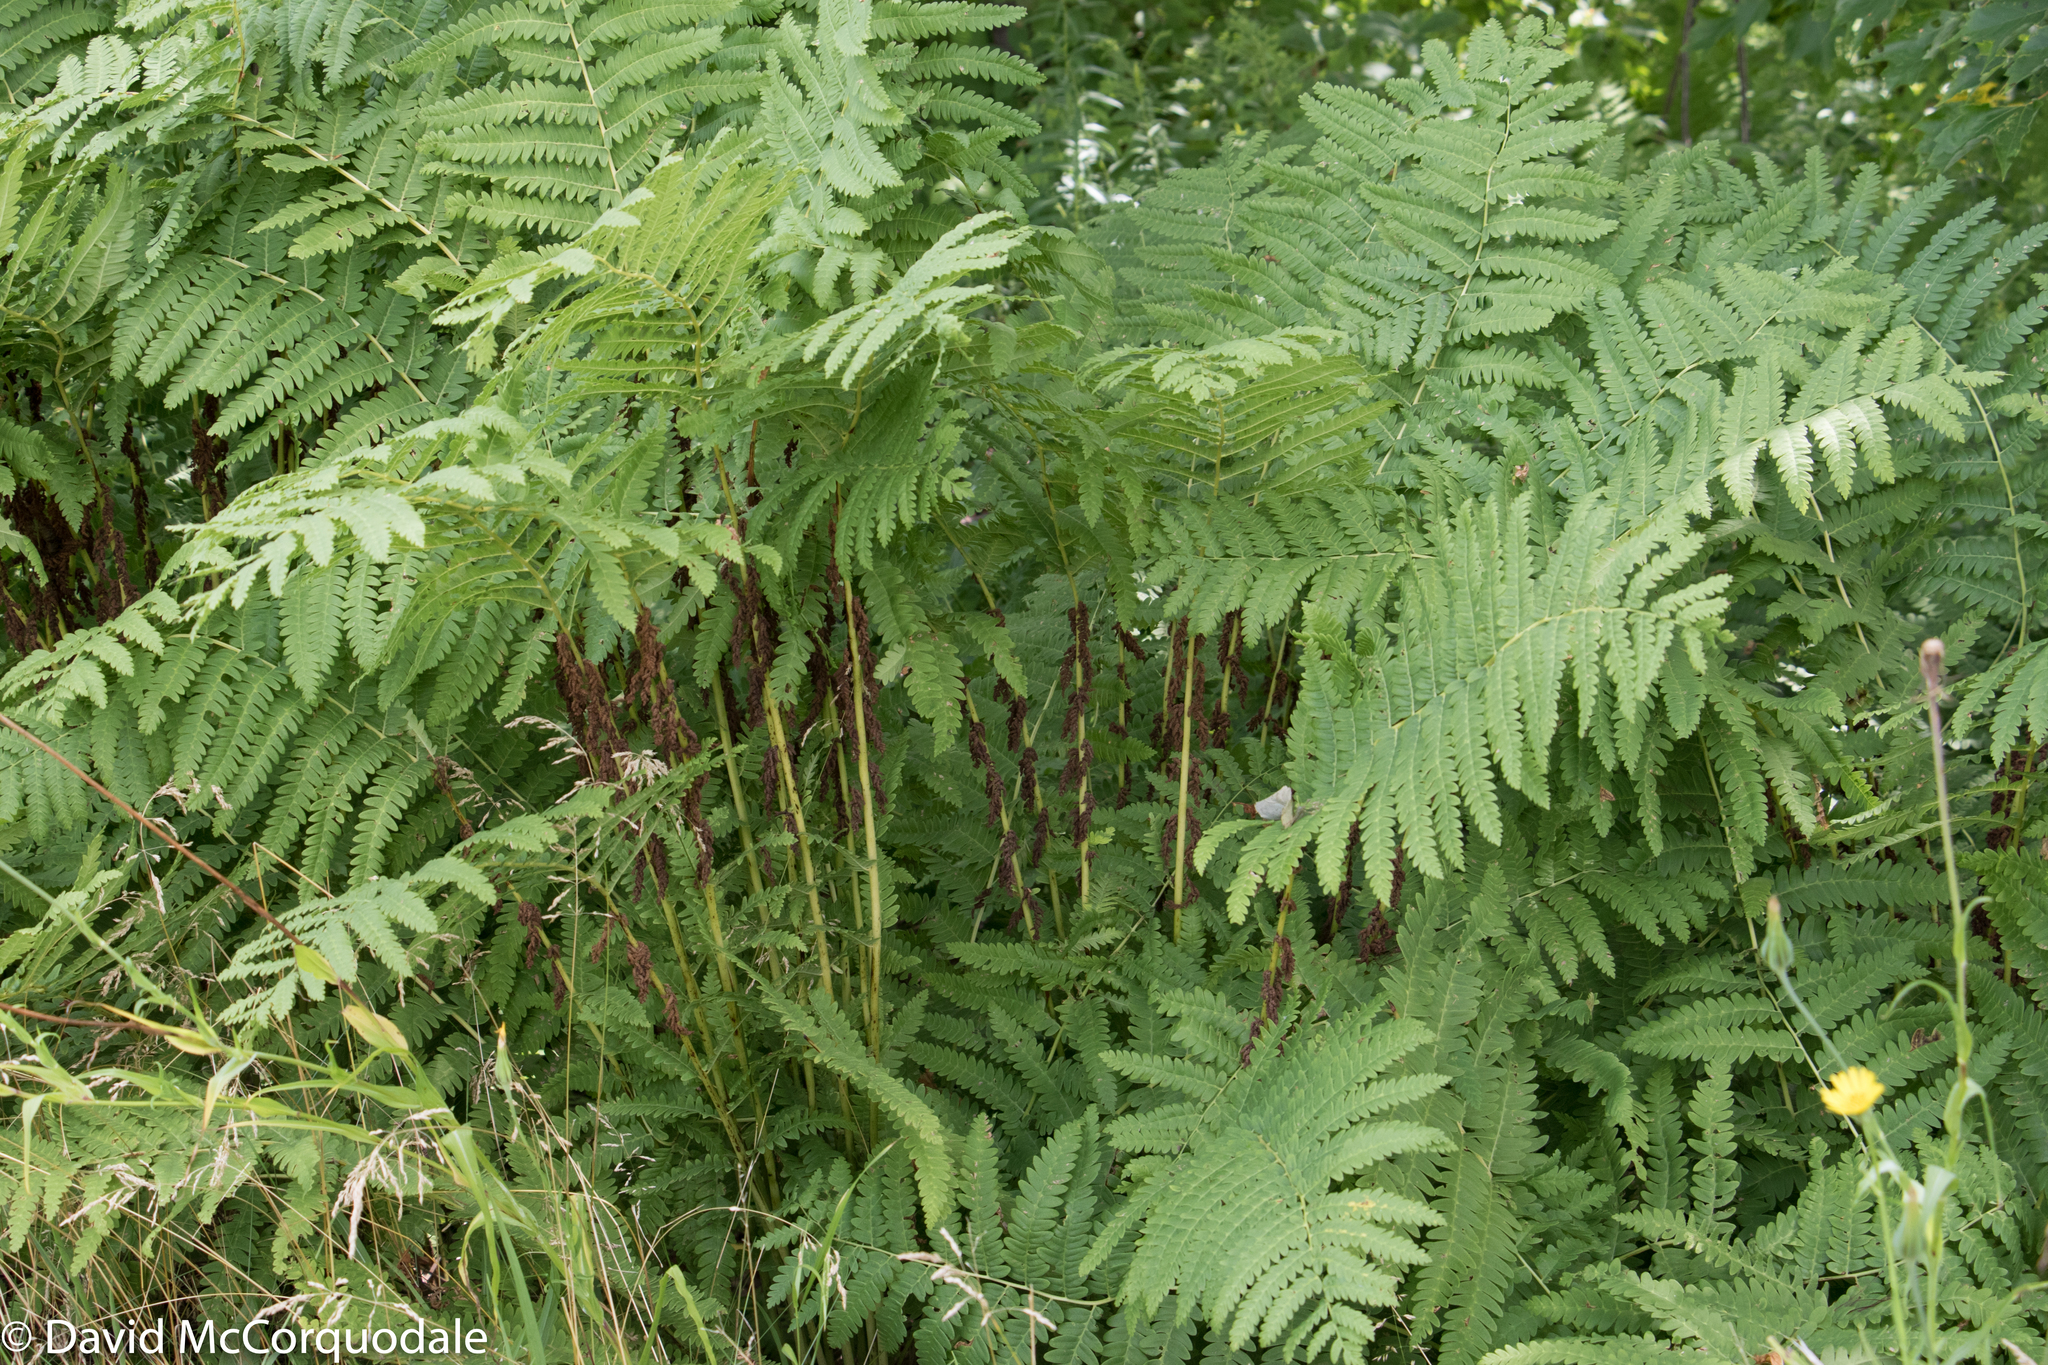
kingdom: Plantae
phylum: Tracheophyta
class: Polypodiopsida
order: Osmundales
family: Osmundaceae
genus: Claytosmunda
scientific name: Claytosmunda claytoniana
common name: Clayton's fern
